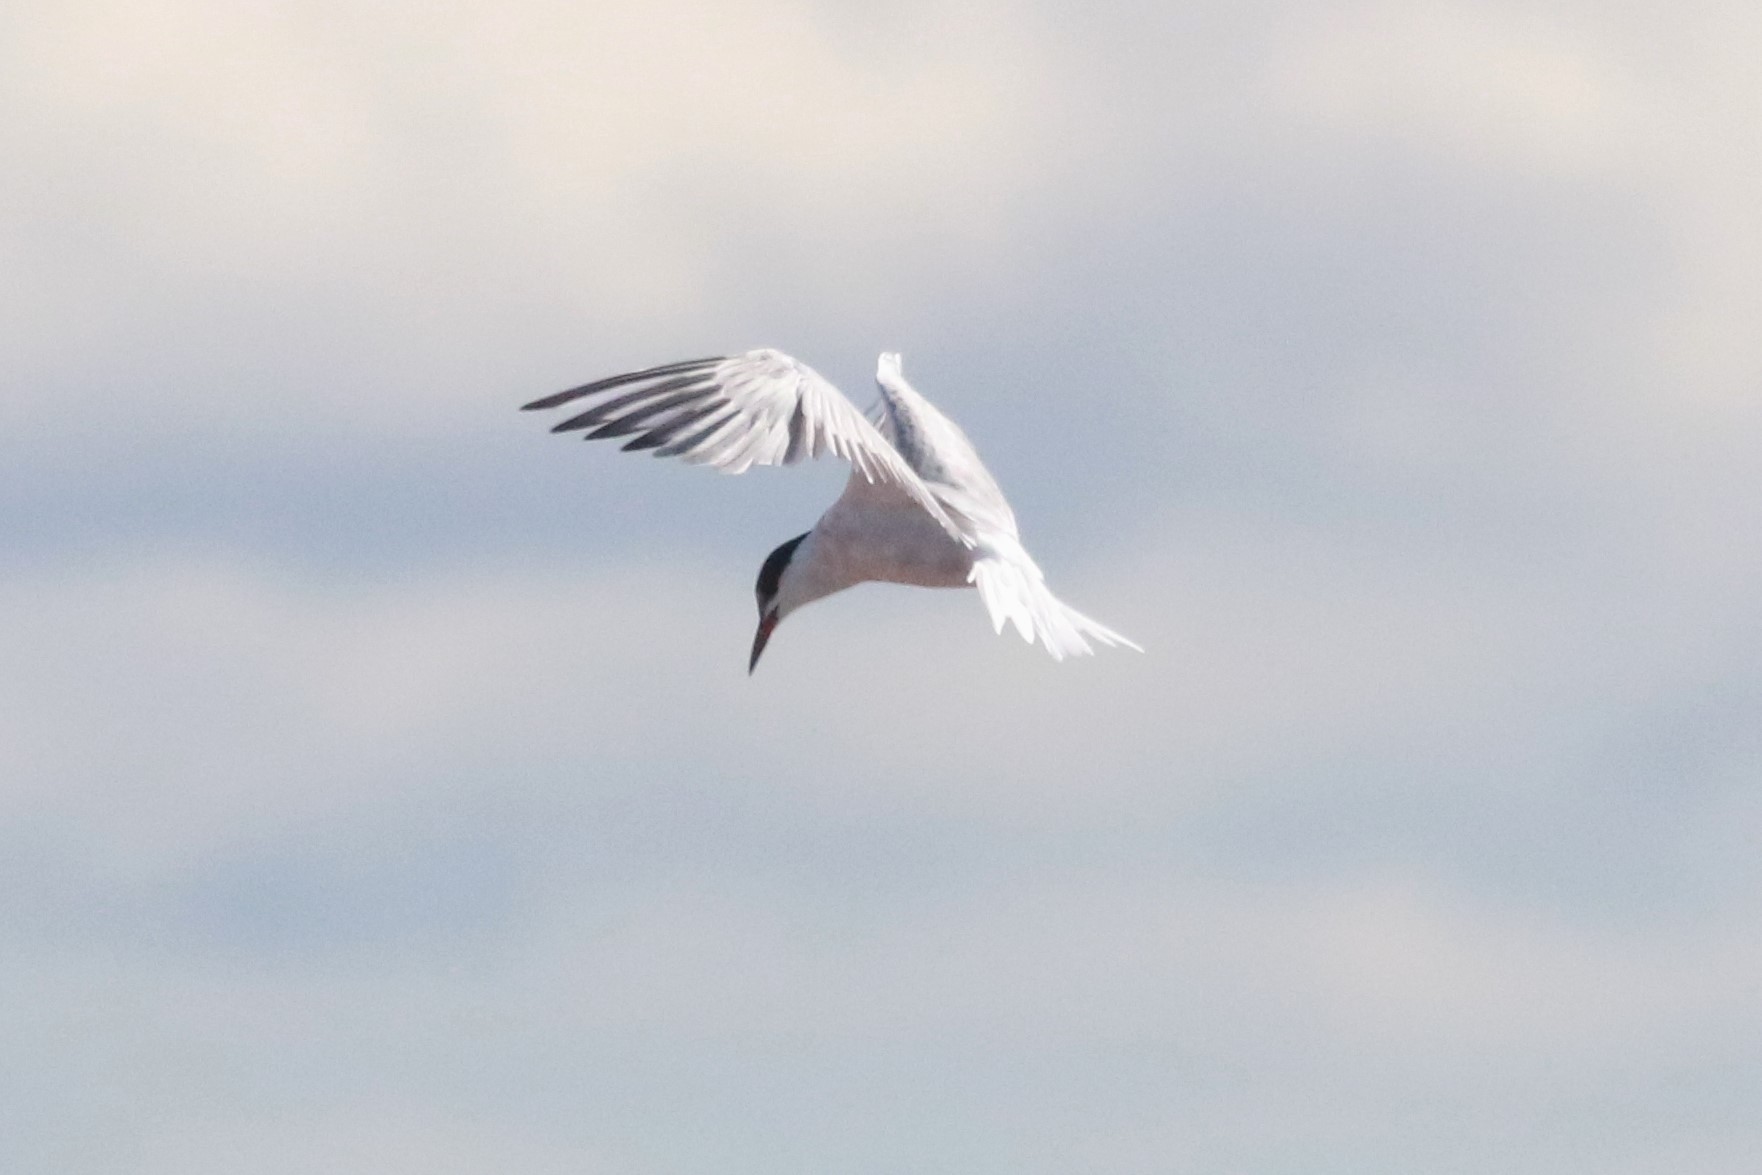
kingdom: Animalia
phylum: Chordata
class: Aves
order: Charadriiformes
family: Laridae
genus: Sterna
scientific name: Sterna hirundo
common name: Common tern
